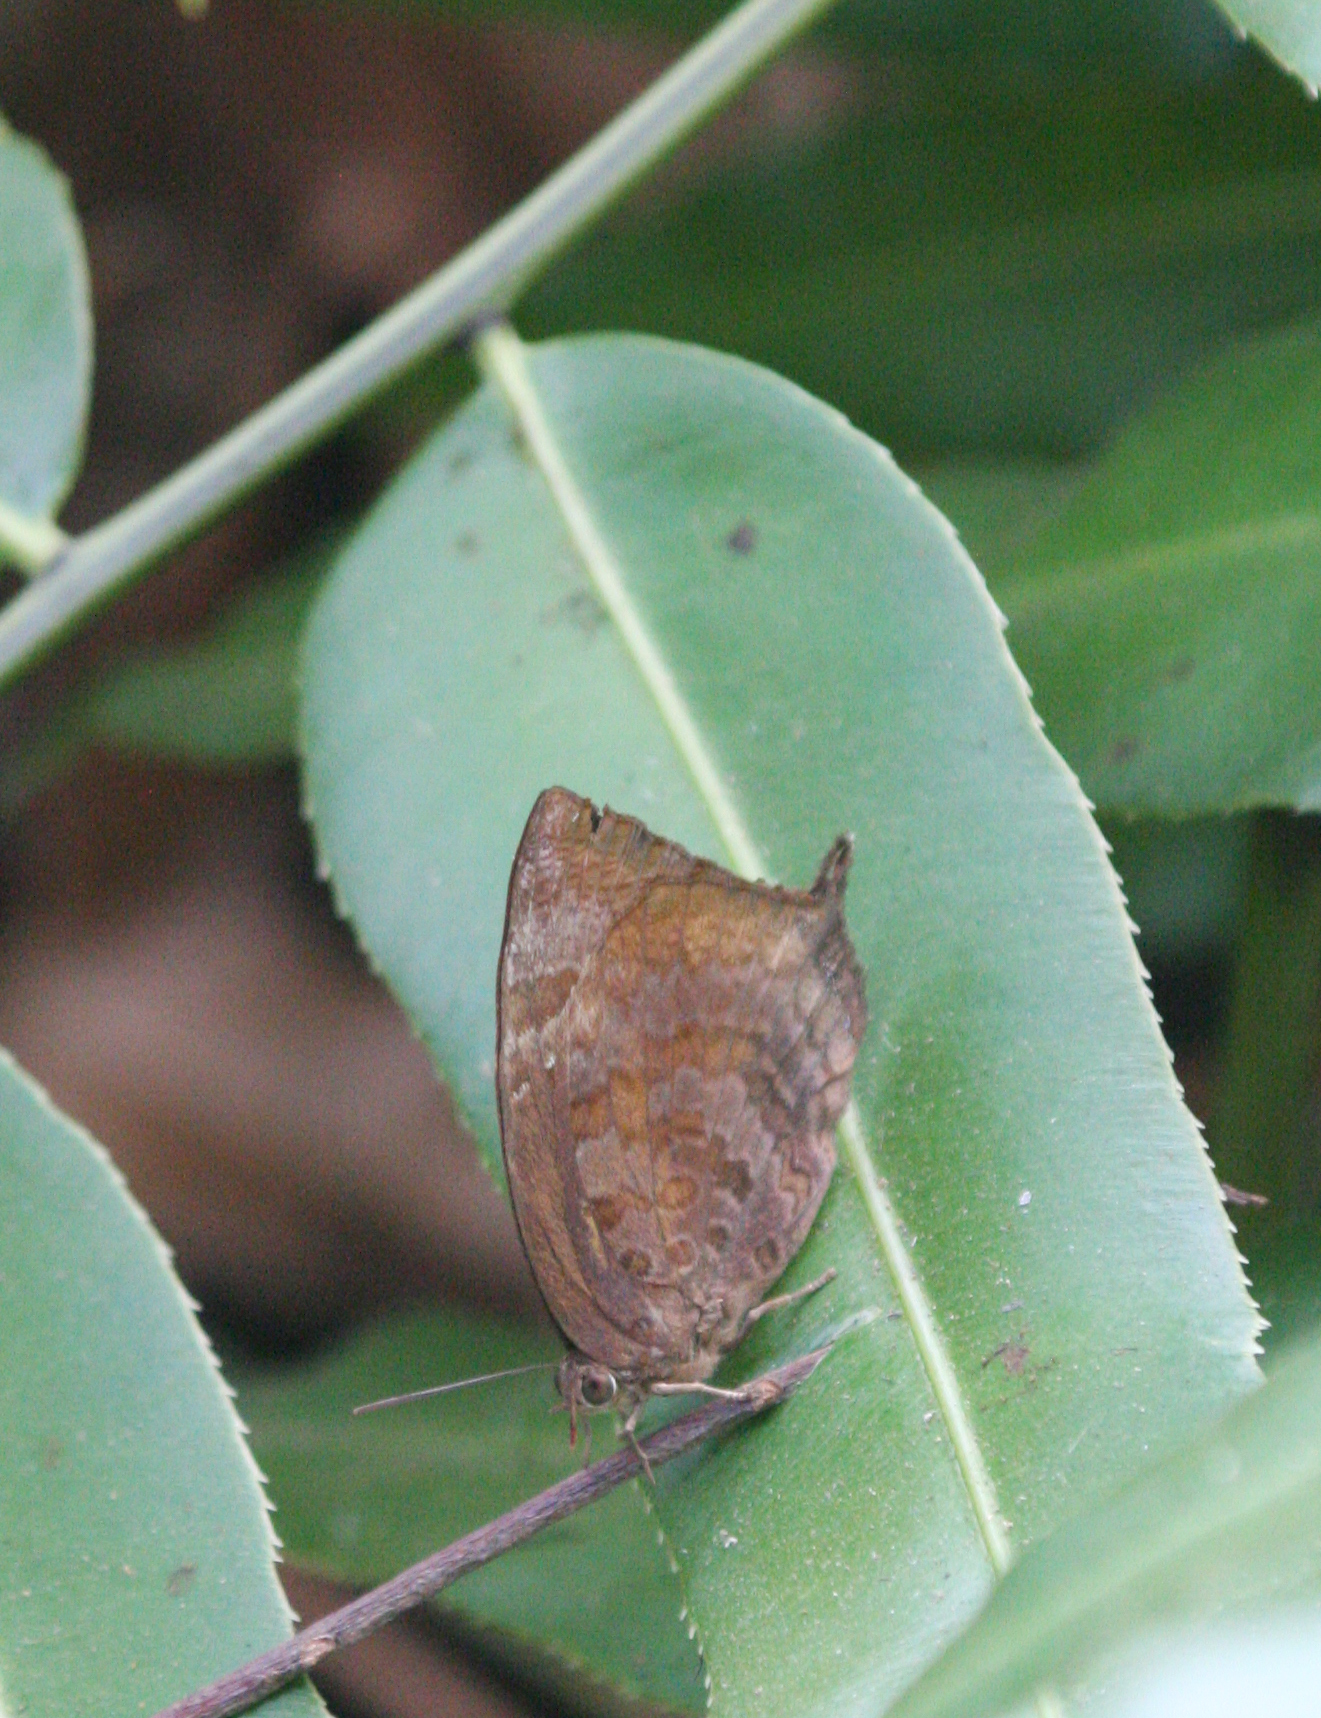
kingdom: Animalia
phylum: Arthropoda
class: Insecta
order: Lepidoptera
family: Lycaenidae
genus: Arhopala
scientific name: Arhopala centaurus
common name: Dull oak-blue
